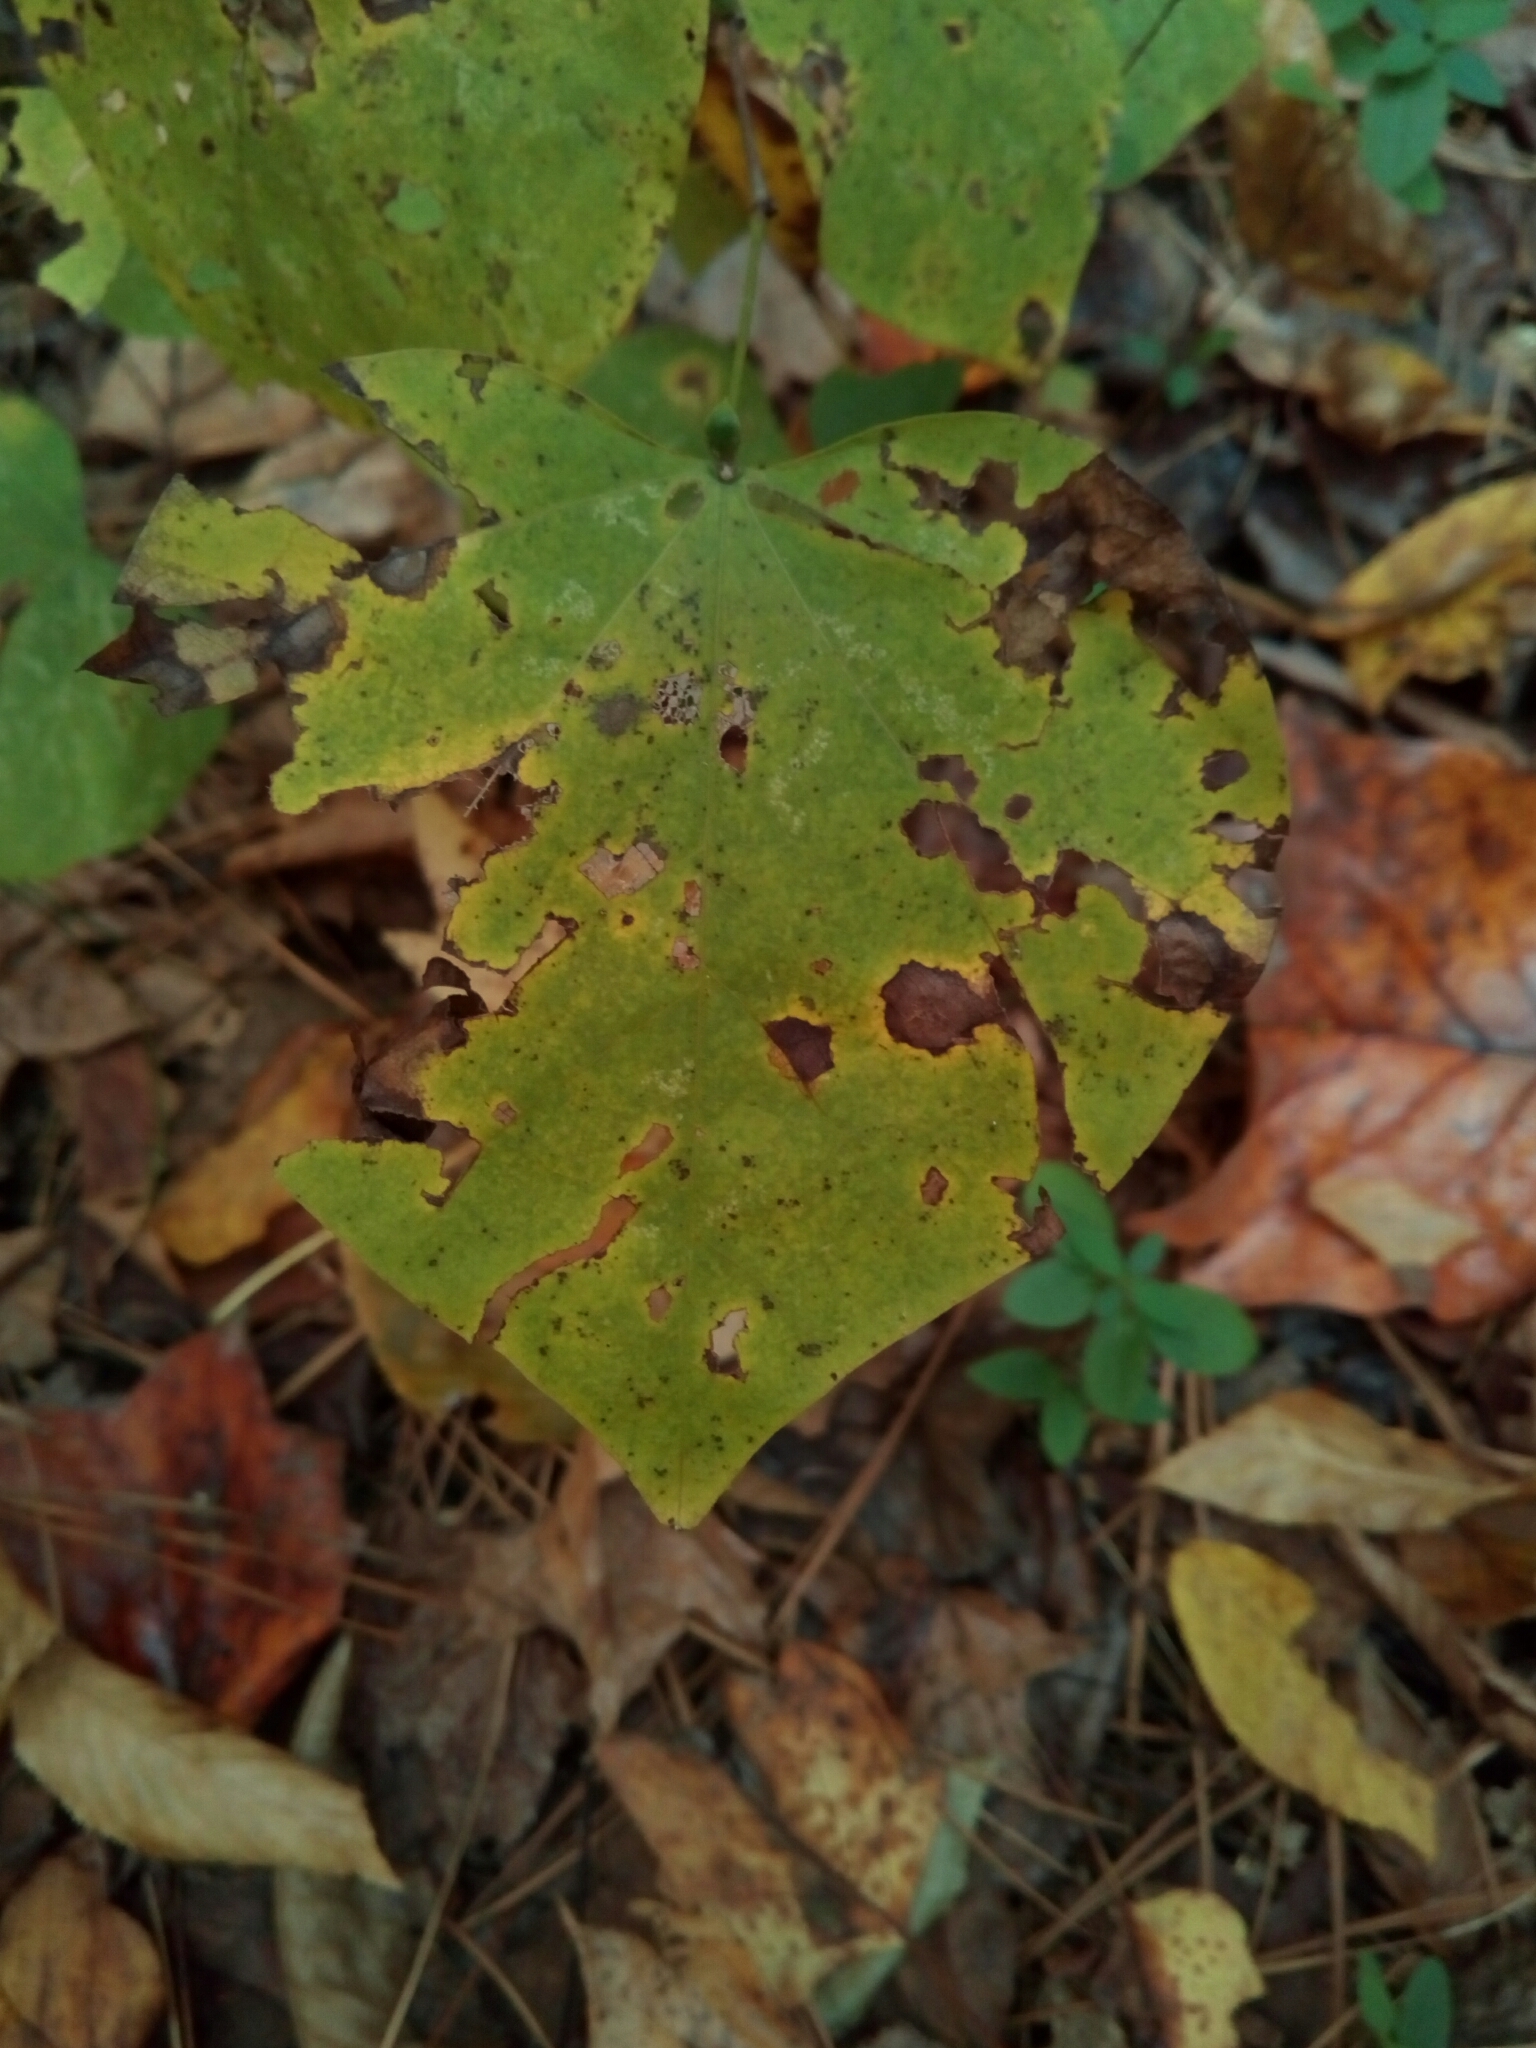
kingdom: Plantae
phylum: Tracheophyta
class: Magnoliopsida
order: Fabales
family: Fabaceae
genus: Cercis
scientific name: Cercis canadensis
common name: Eastern redbud
